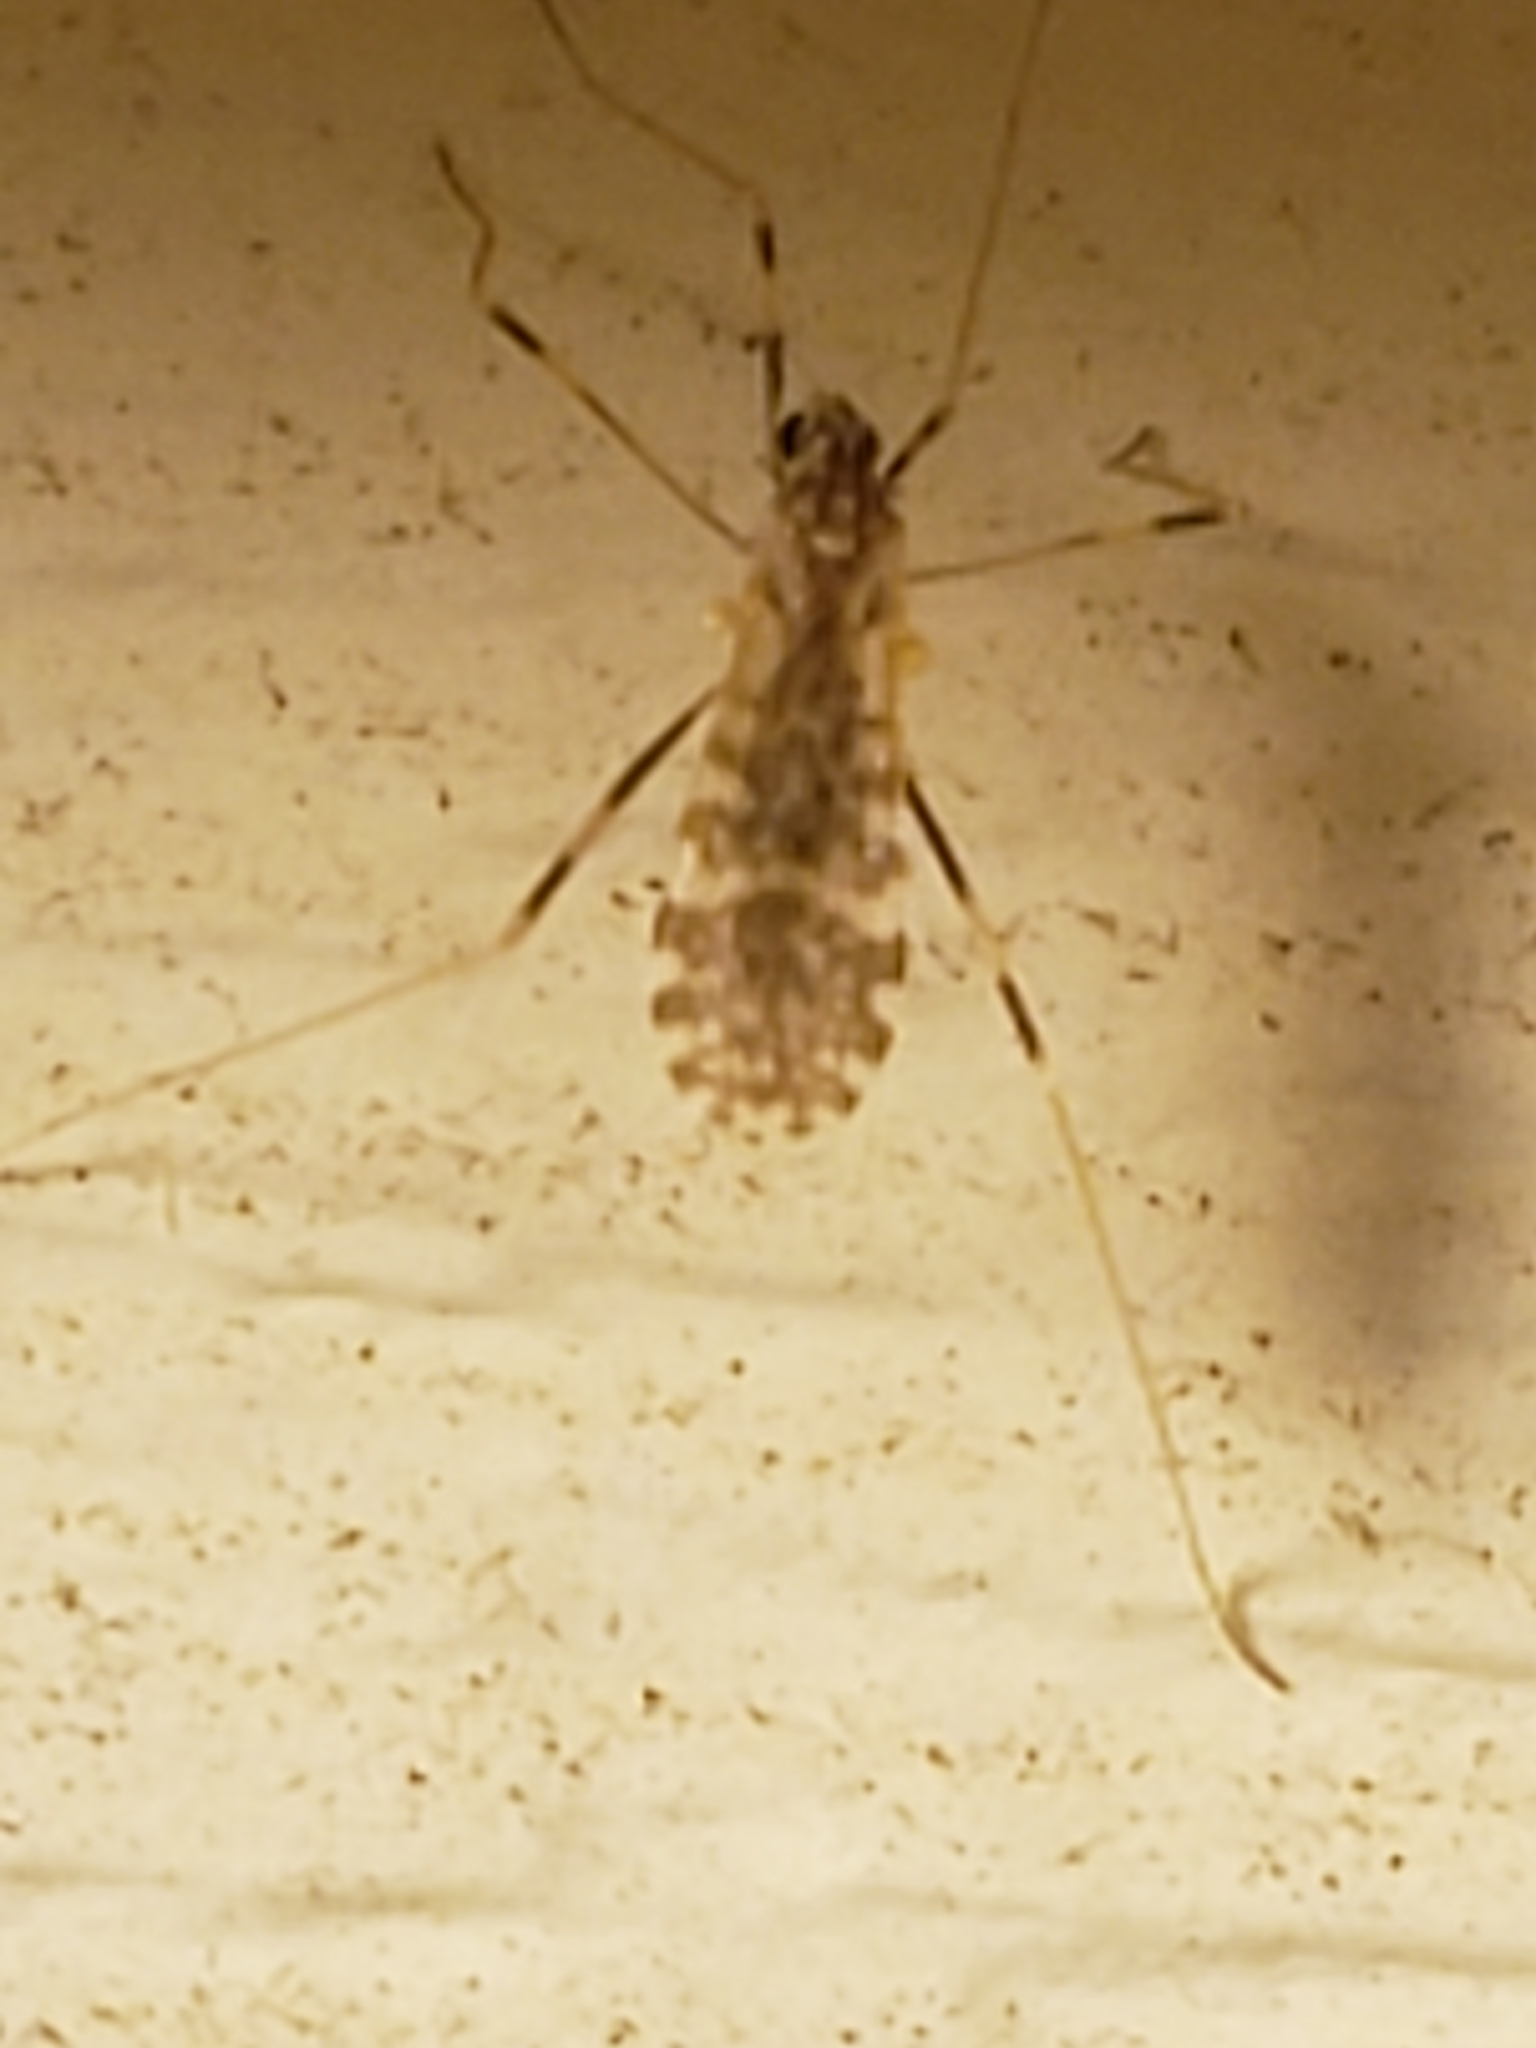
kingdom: Animalia
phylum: Arthropoda
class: Insecta
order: Diptera
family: Limoniidae
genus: Erioptera
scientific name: Erioptera caliptera
